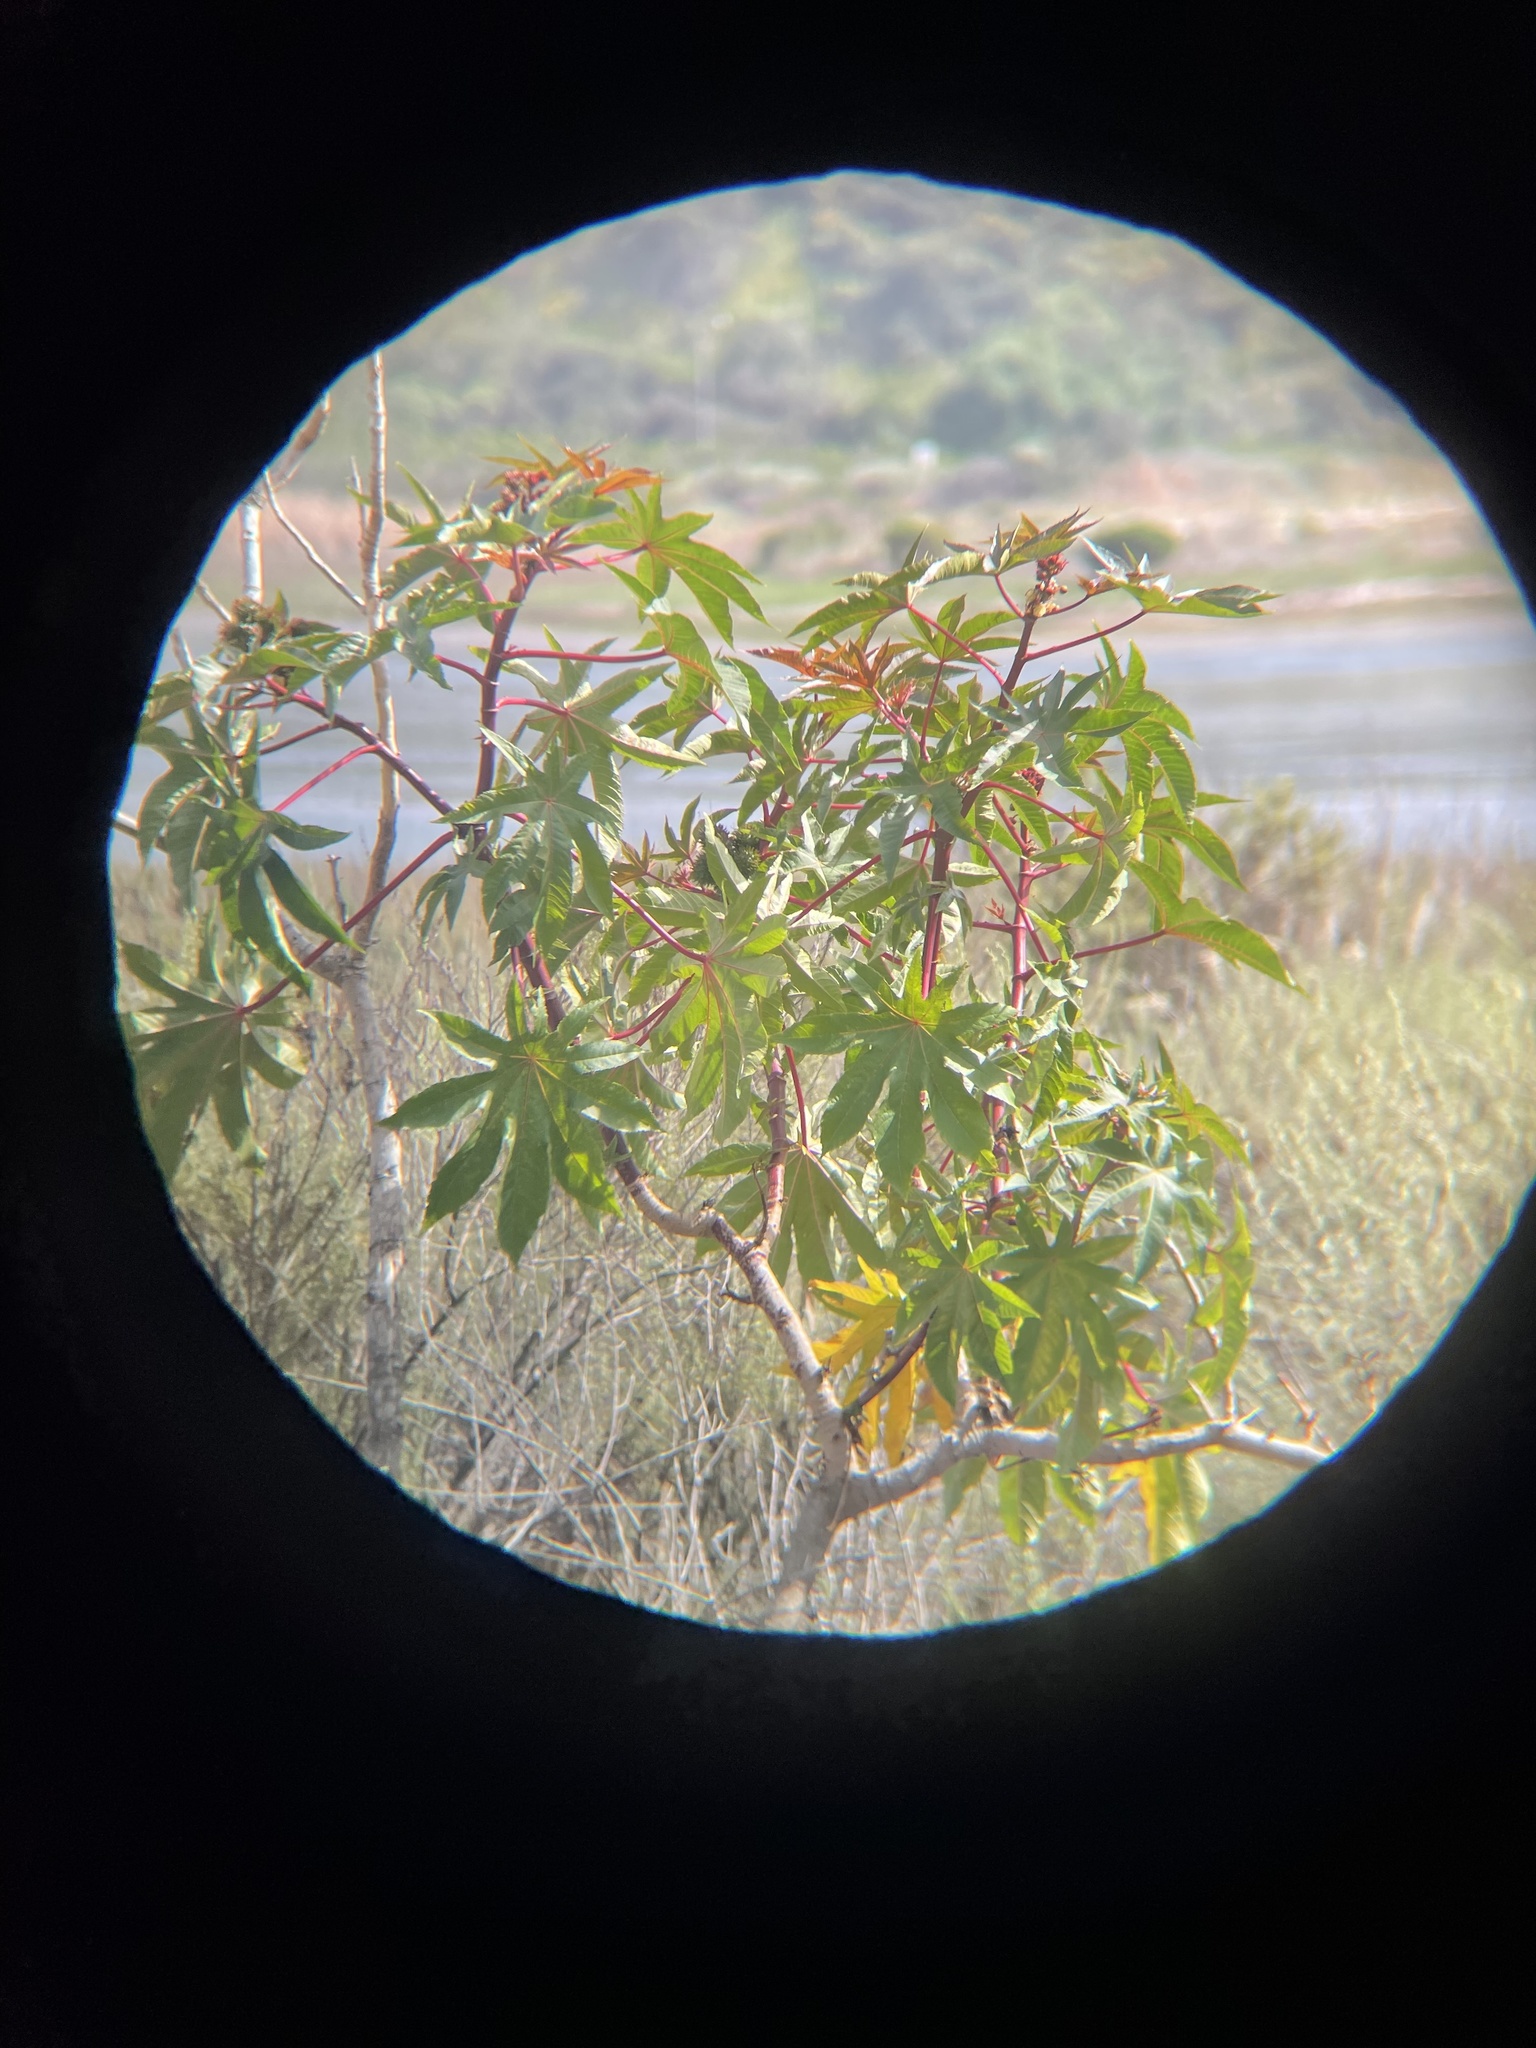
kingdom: Plantae
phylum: Tracheophyta
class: Magnoliopsida
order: Malpighiales
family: Euphorbiaceae
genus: Ricinus
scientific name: Ricinus communis
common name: Castor-oil-plant
